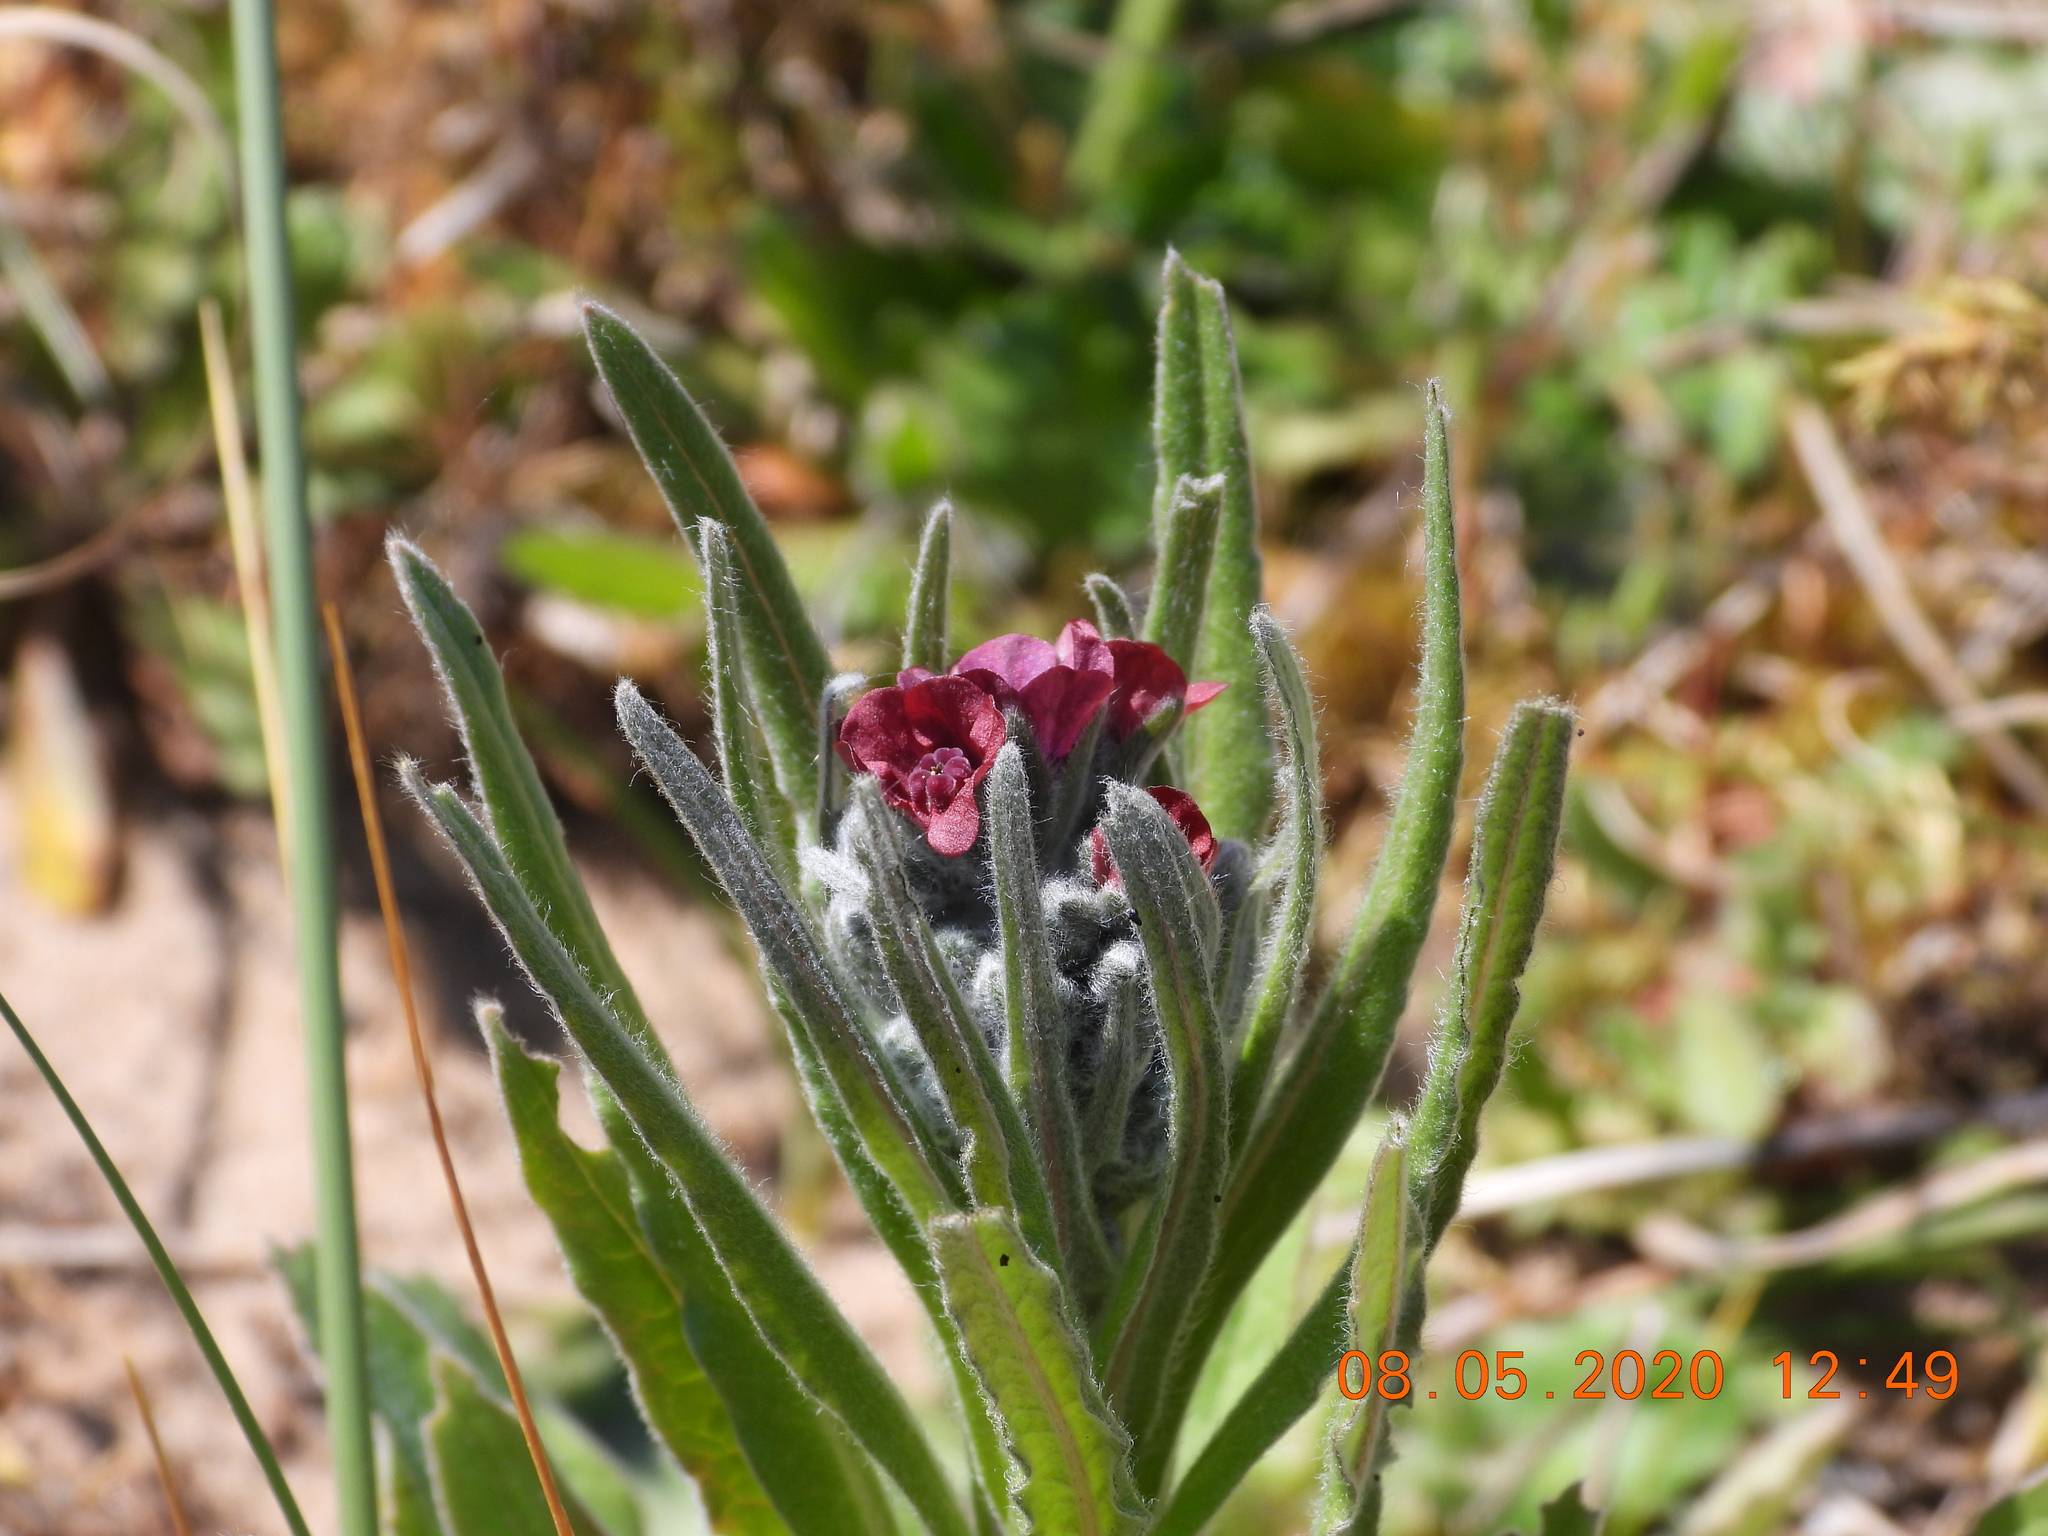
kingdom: Plantae
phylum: Tracheophyta
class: Magnoliopsida
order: Boraginales
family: Boraginaceae
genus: Cynoglossum
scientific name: Cynoglossum officinale
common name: Hound's-tongue
